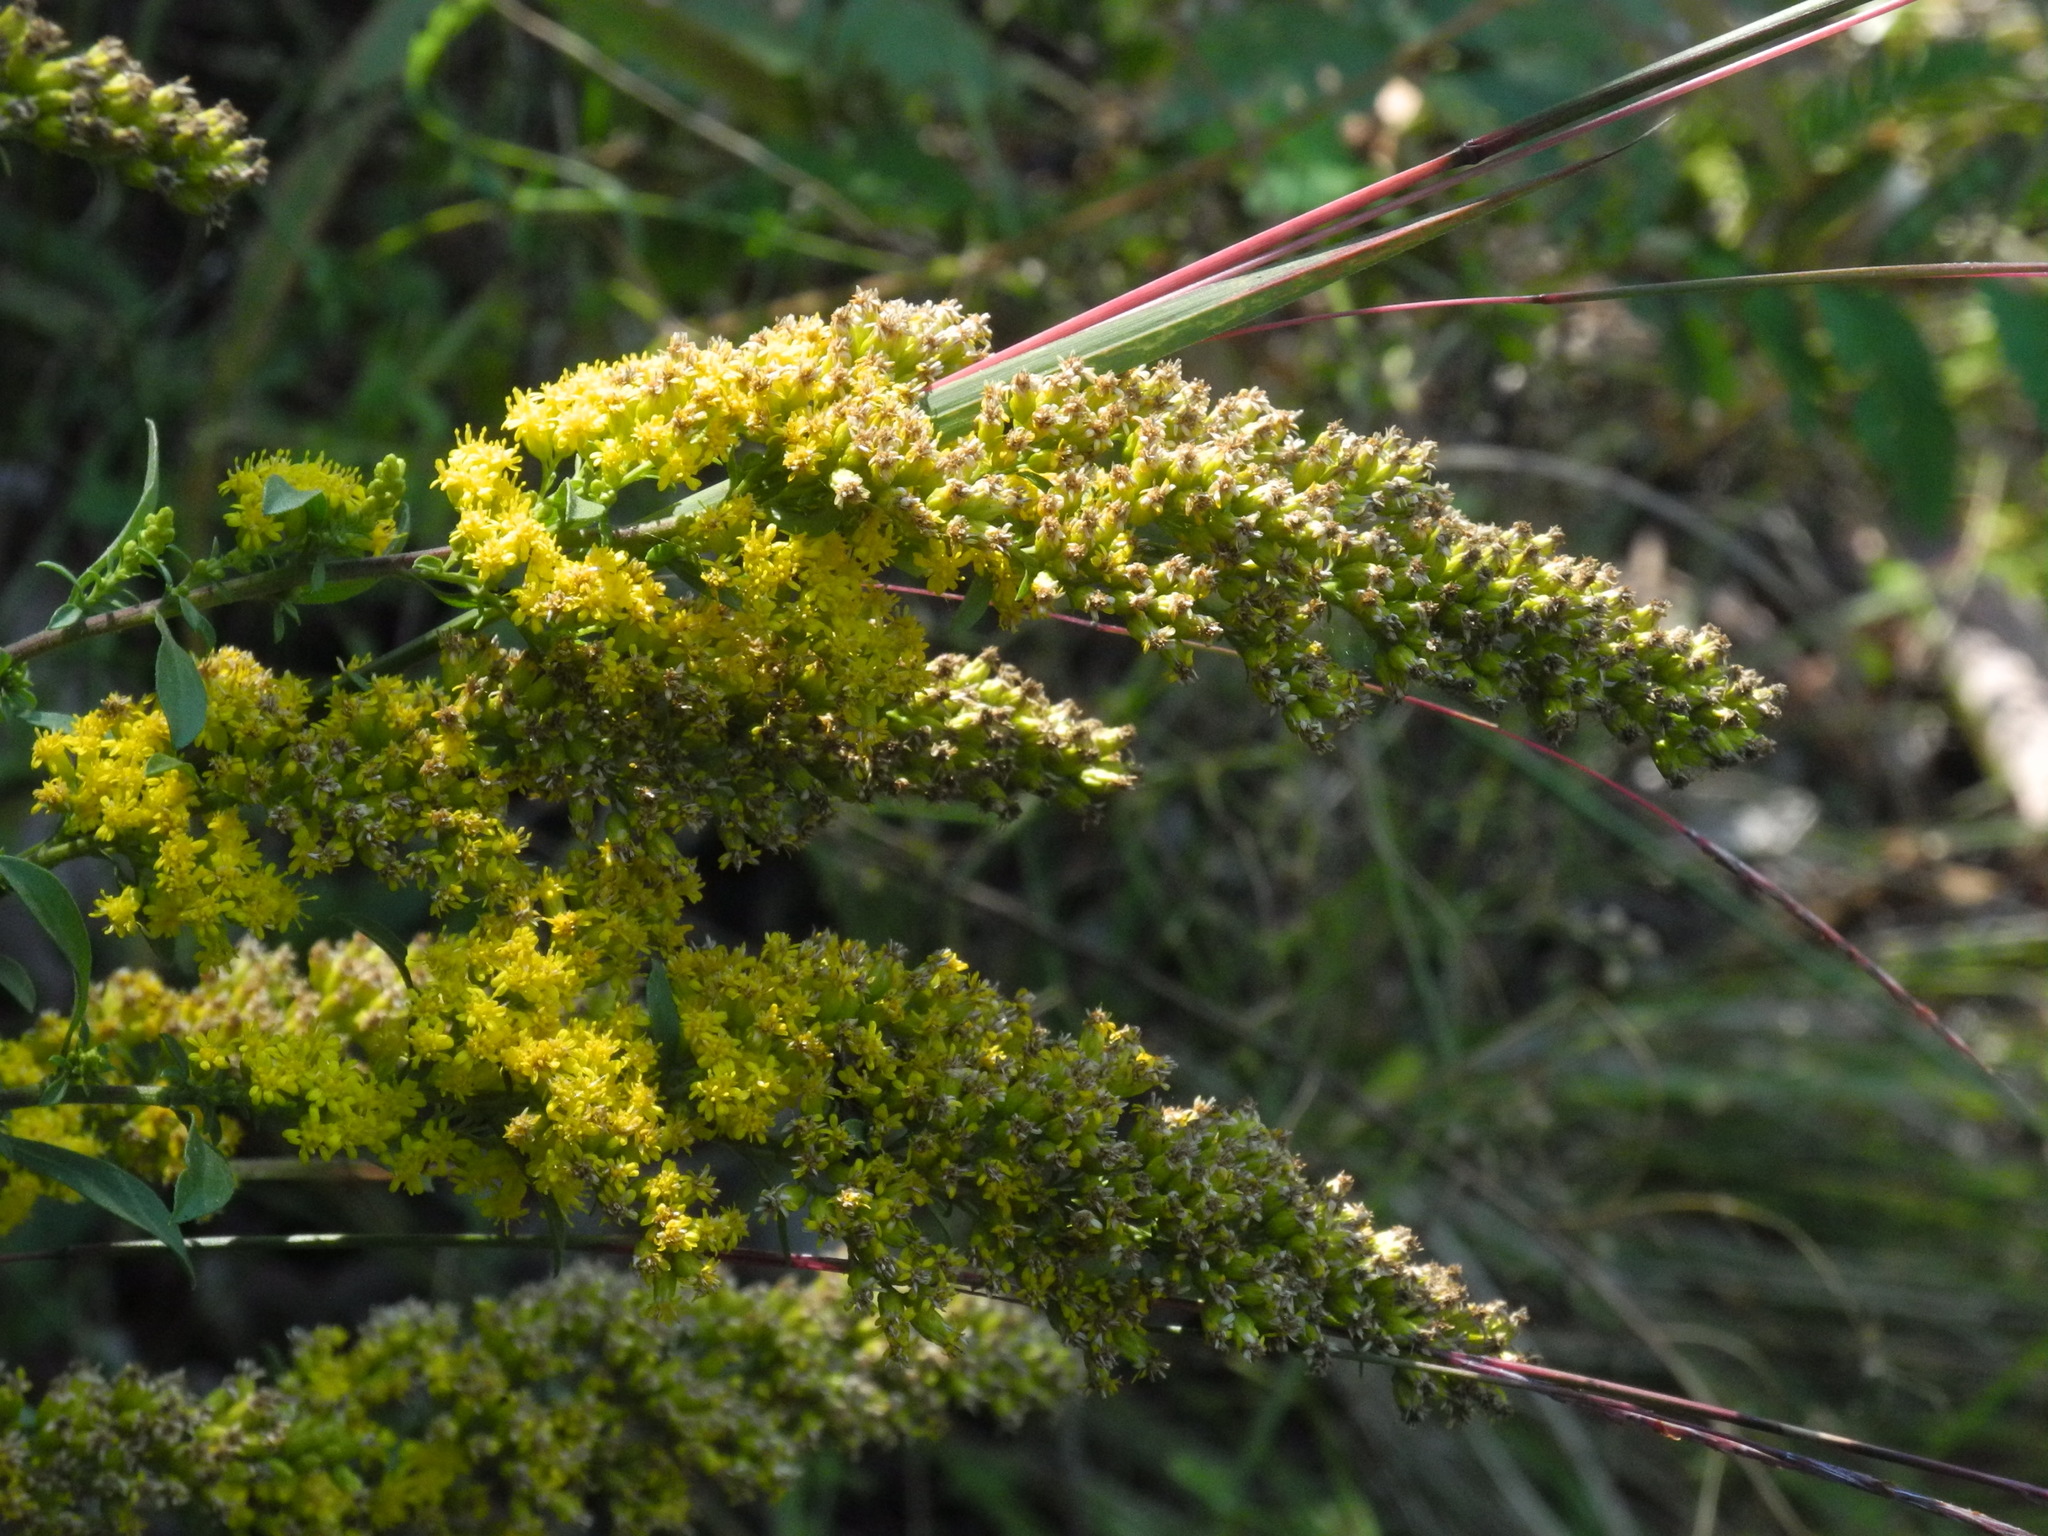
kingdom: Plantae
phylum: Tracheophyta
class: Magnoliopsida
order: Asterales
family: Asteraceae
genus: Solidago
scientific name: Solidago nemoralis
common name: Grey goldenrod
